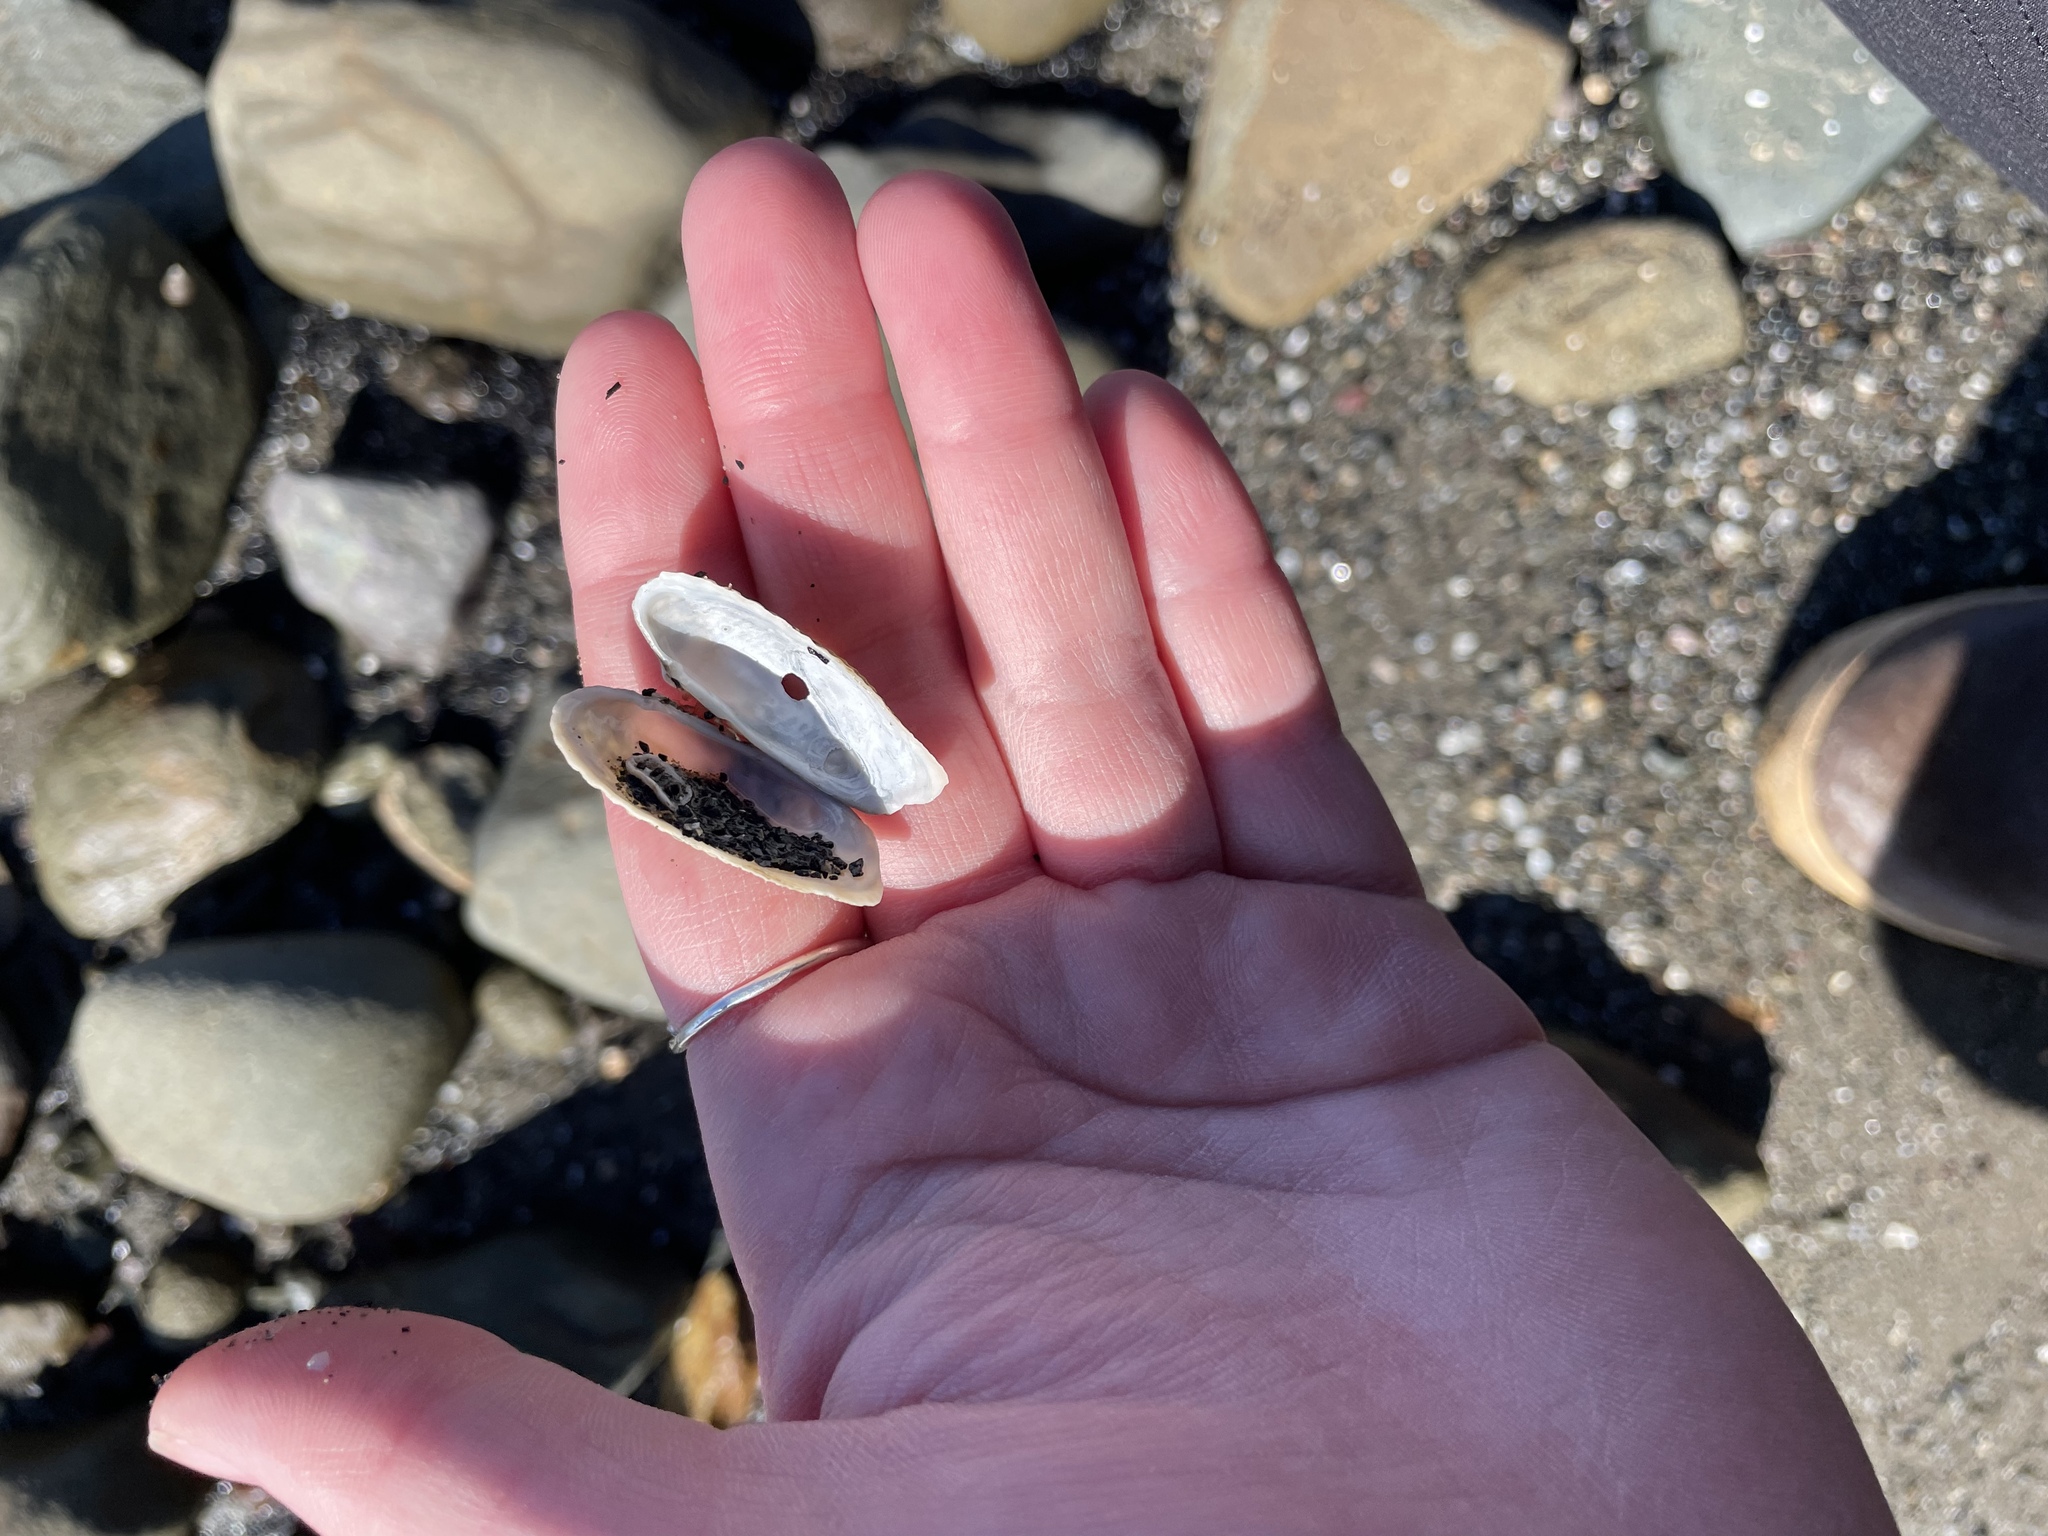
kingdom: Animalia
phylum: Mollusca
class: Bivalvia
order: Venerida
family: Veneridae
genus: Petricolaria
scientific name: Petricolaria pholadiformis
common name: American piddock
